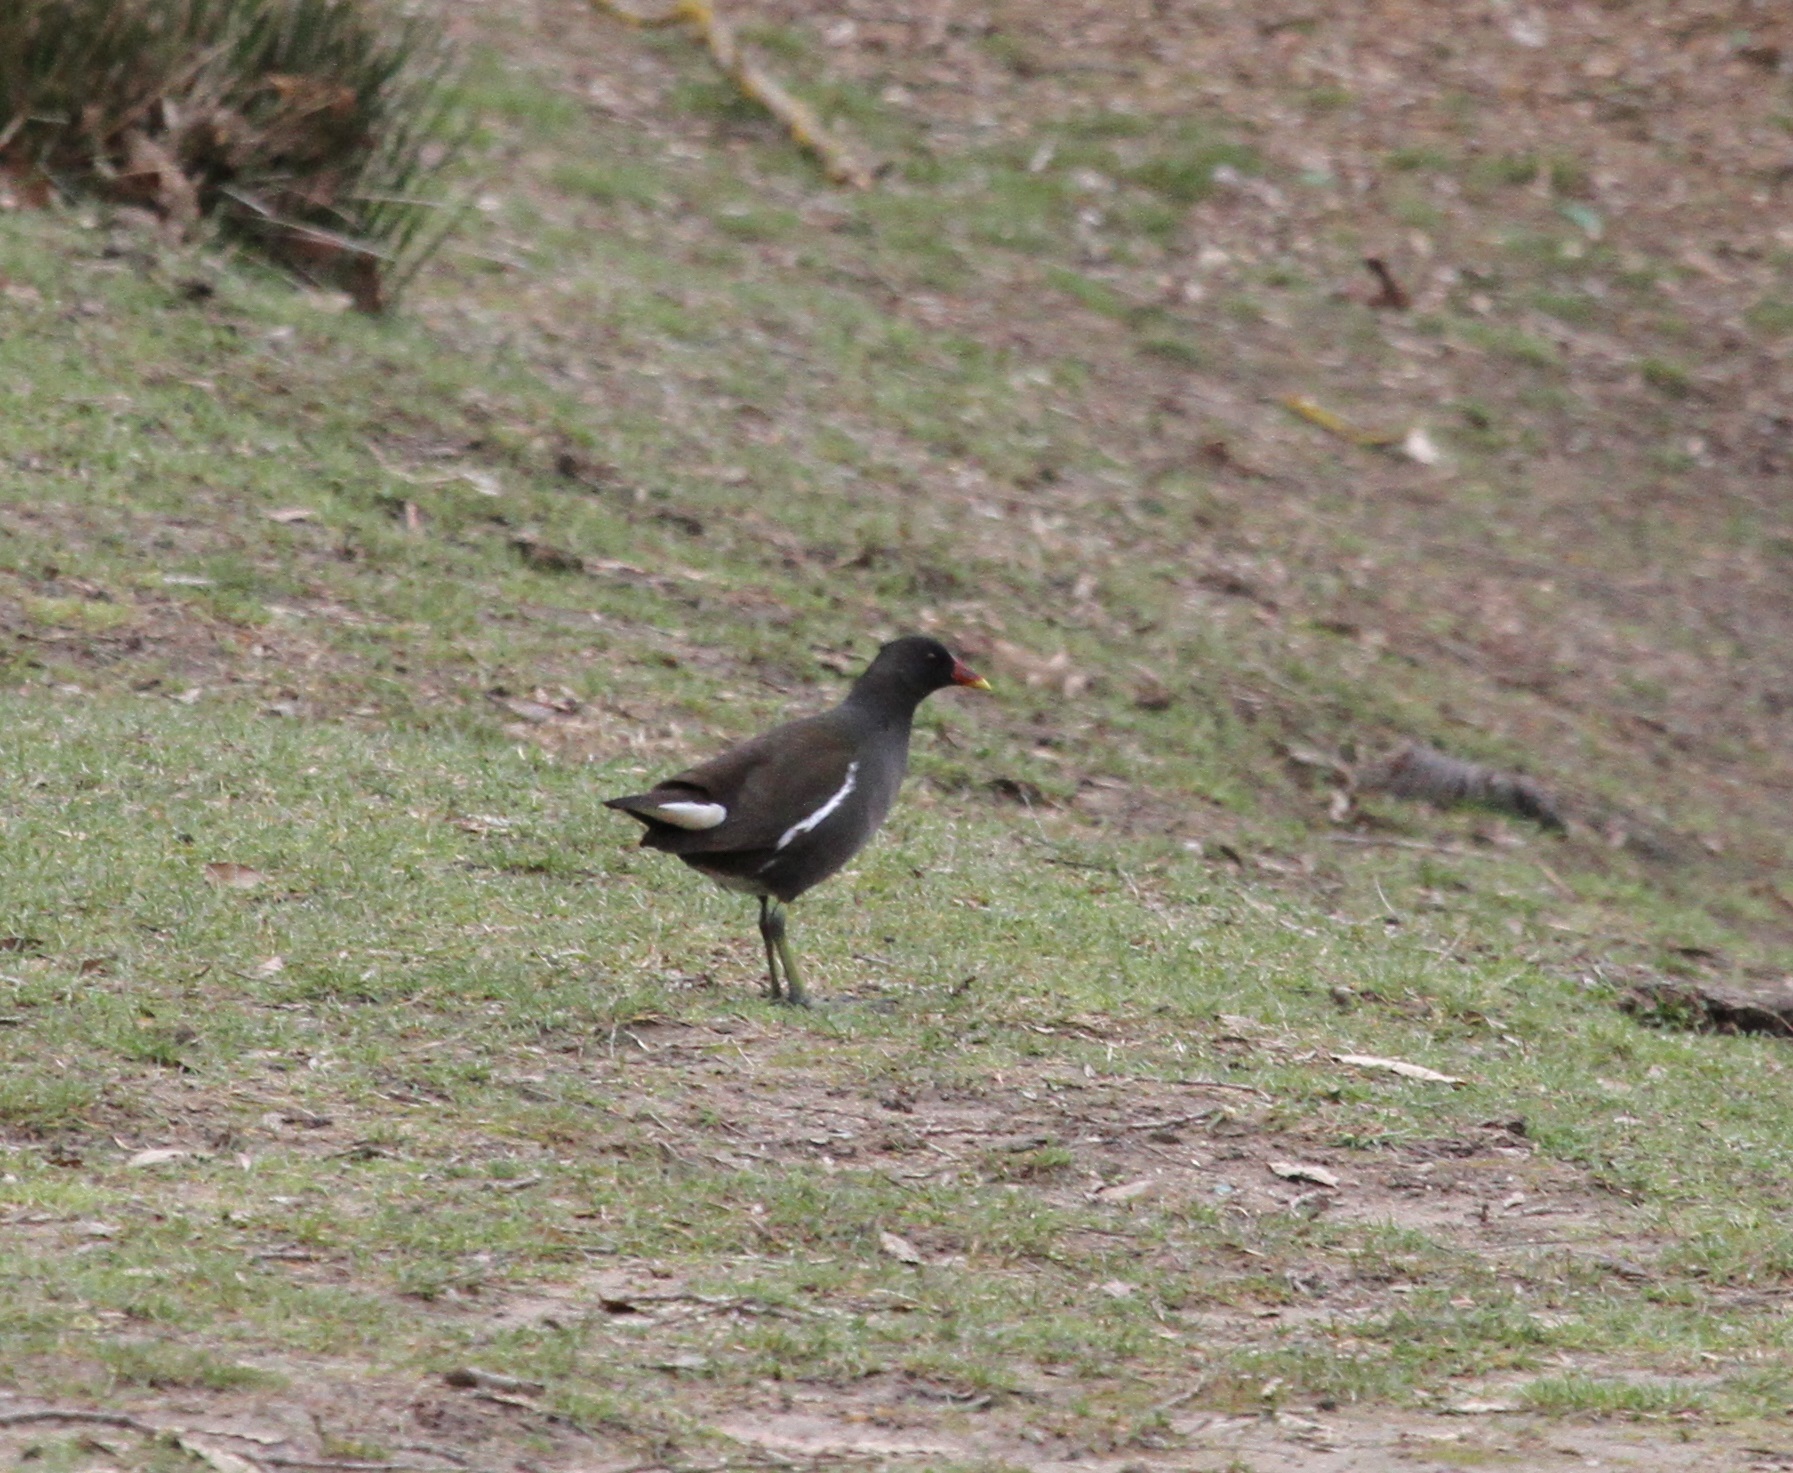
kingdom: Animalia
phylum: Chordata
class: Aves
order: Gruiformes
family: Rallidae
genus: Gallinula
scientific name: Gallinula chloropus
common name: Common moorhen
